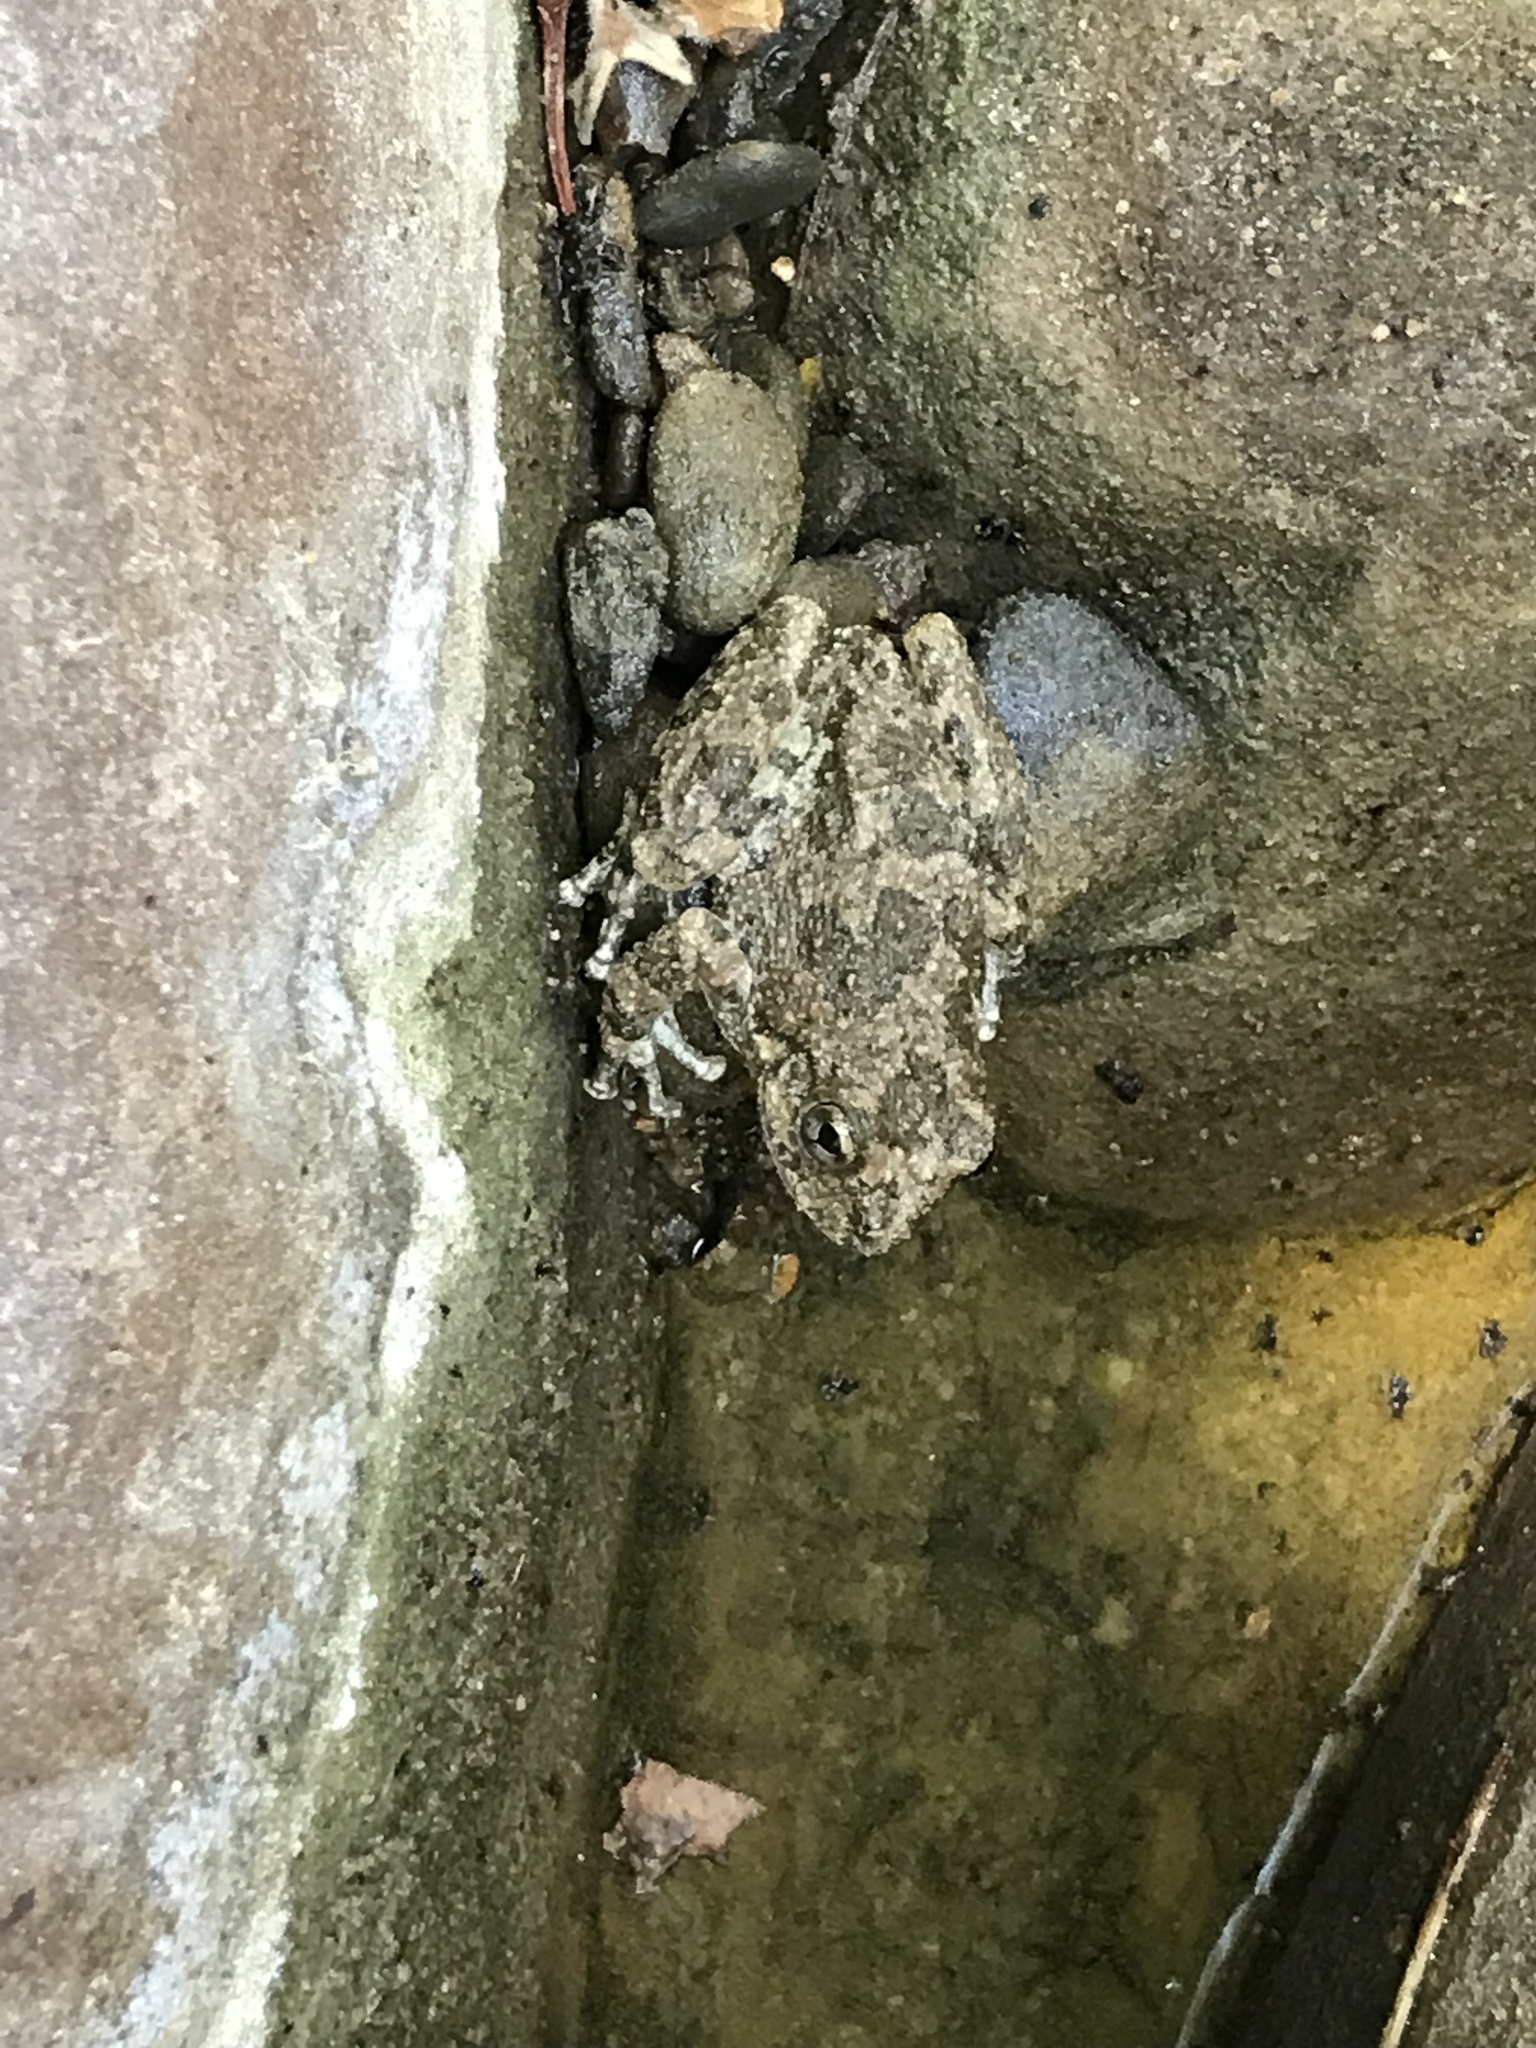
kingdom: Animalia
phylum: Chordata
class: Amphibia
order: Anura
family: Hylidae
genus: Pseudacris
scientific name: Pseudacris cadaverina
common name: California chorus frog
